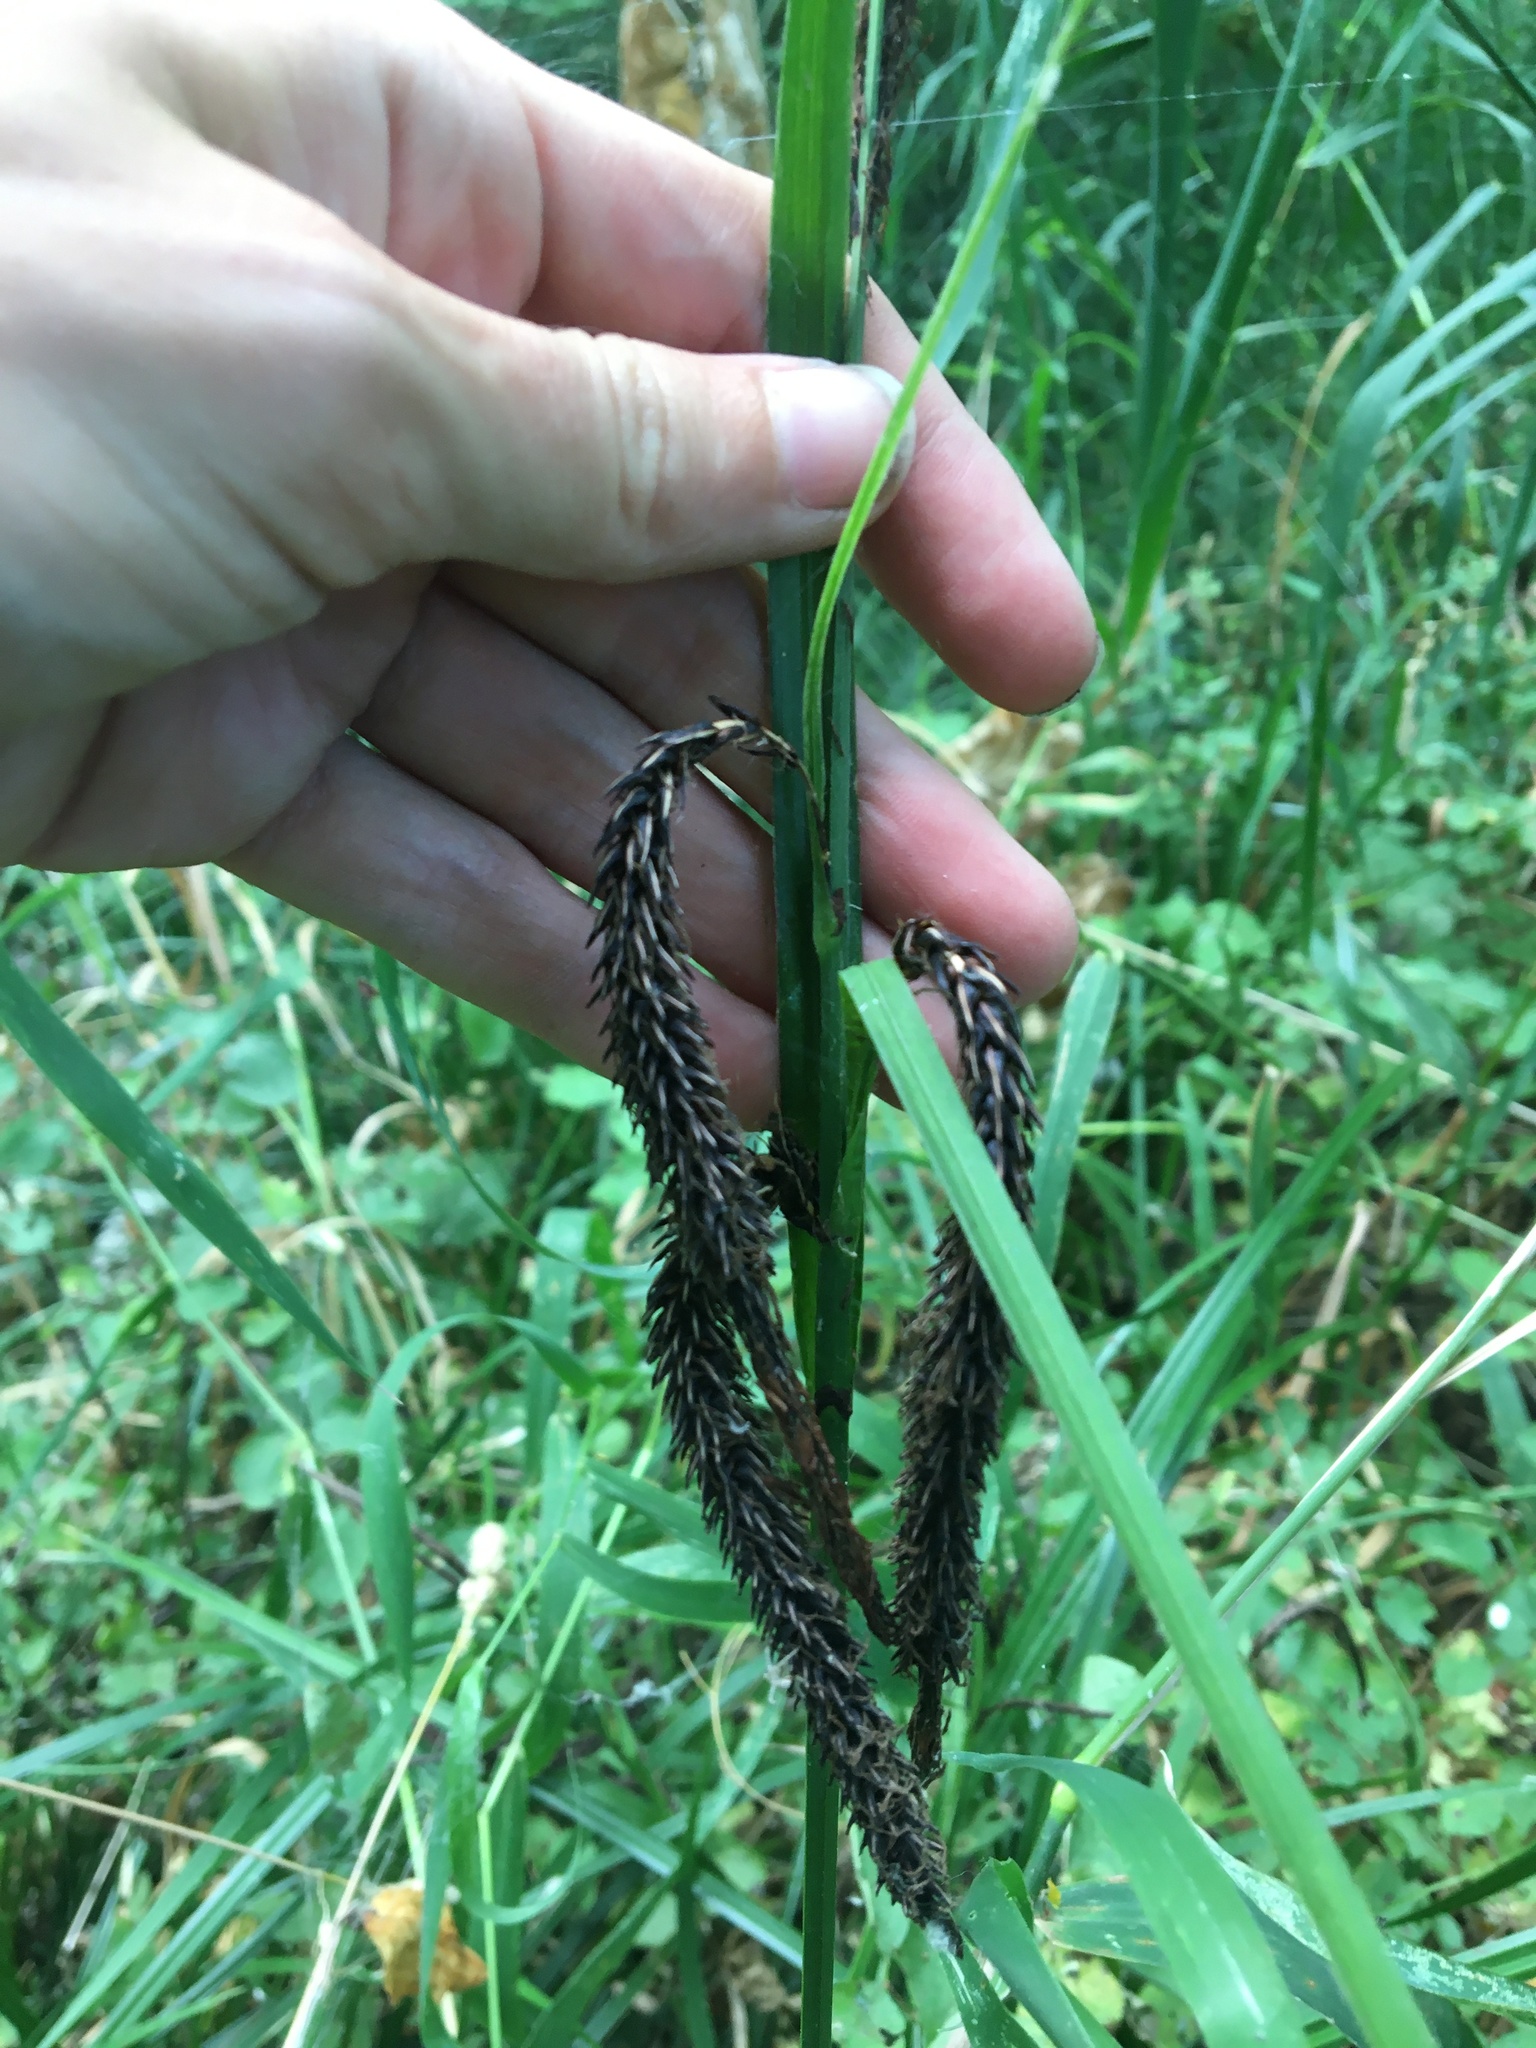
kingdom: Plantae
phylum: Tracheophyta
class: Liliopsida
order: Poales
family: Cyperaceae
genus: Carex
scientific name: Carex obnupta
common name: Slough sedge
